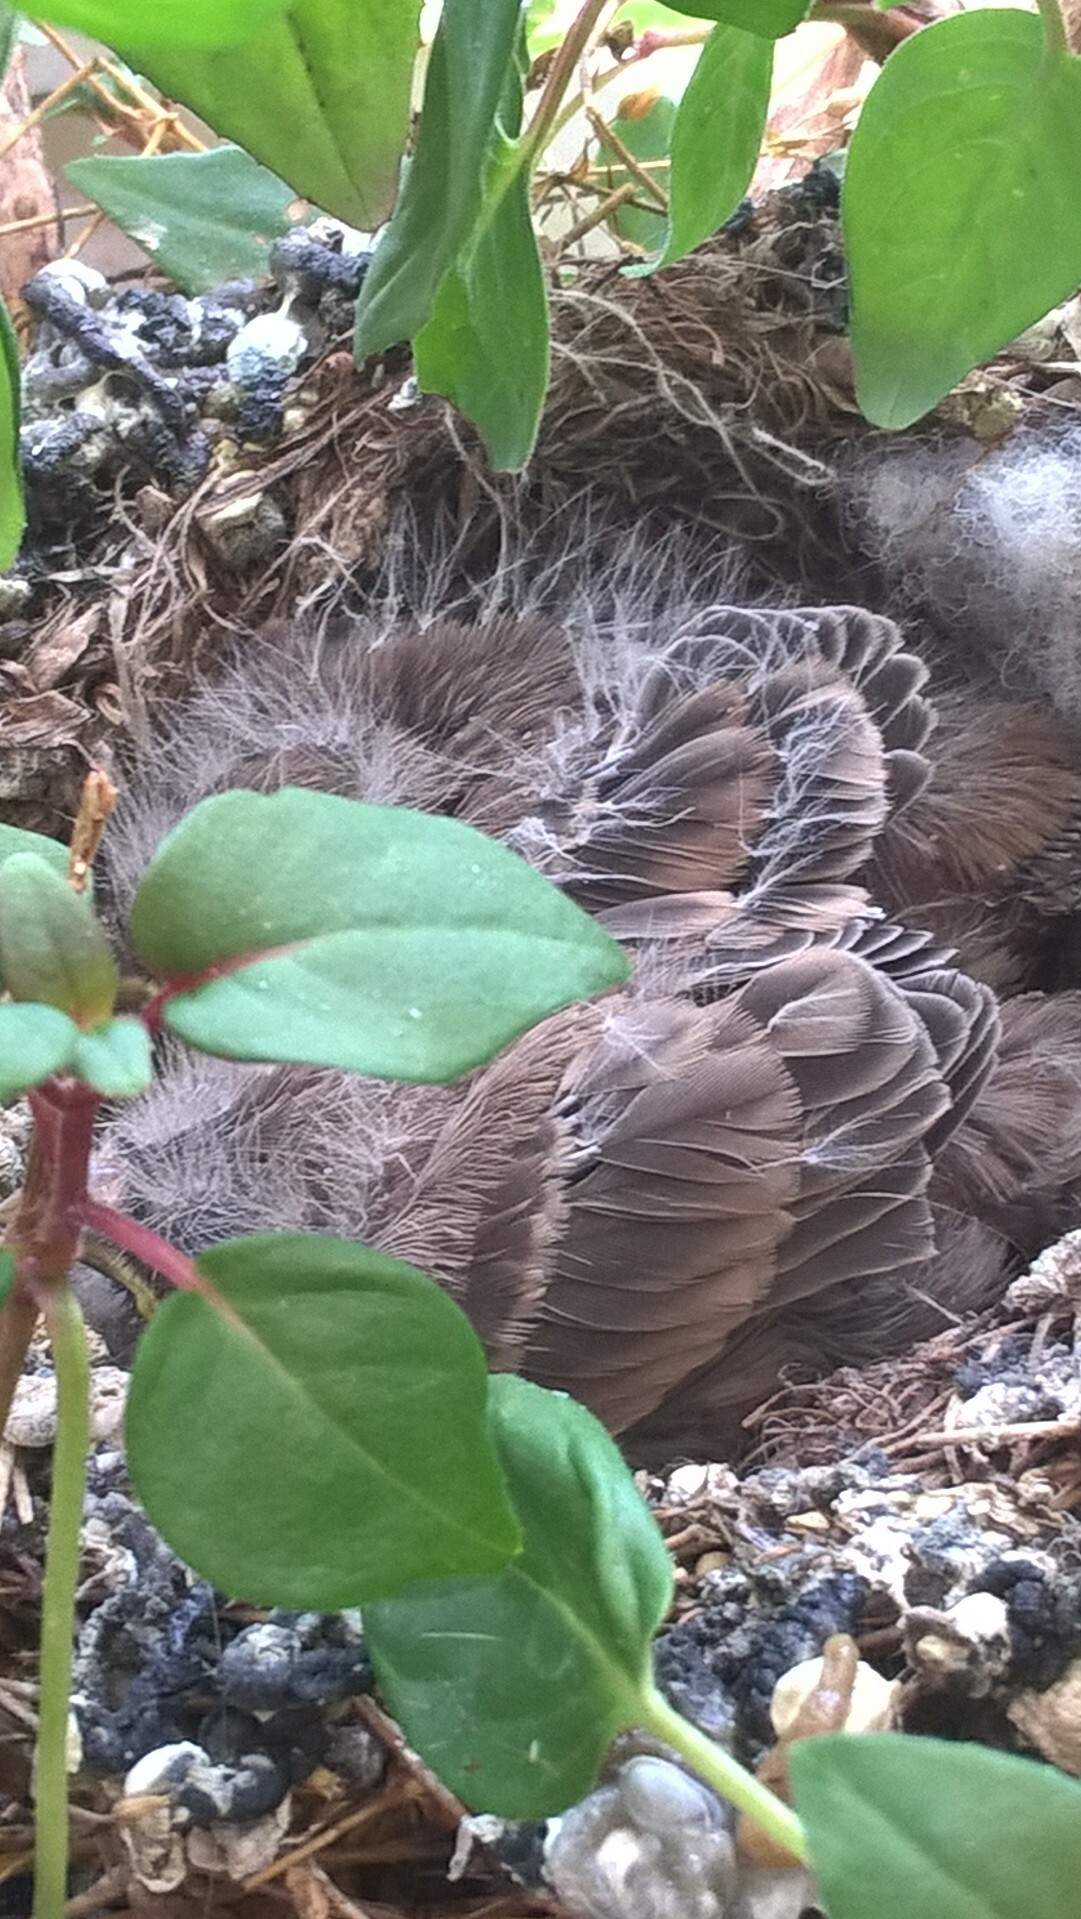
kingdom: Animalia
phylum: Chordata
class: Aves
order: Passeriformes
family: Fringillidae
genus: Haemorhous
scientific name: Haemorhous mexicanus
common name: House finch
